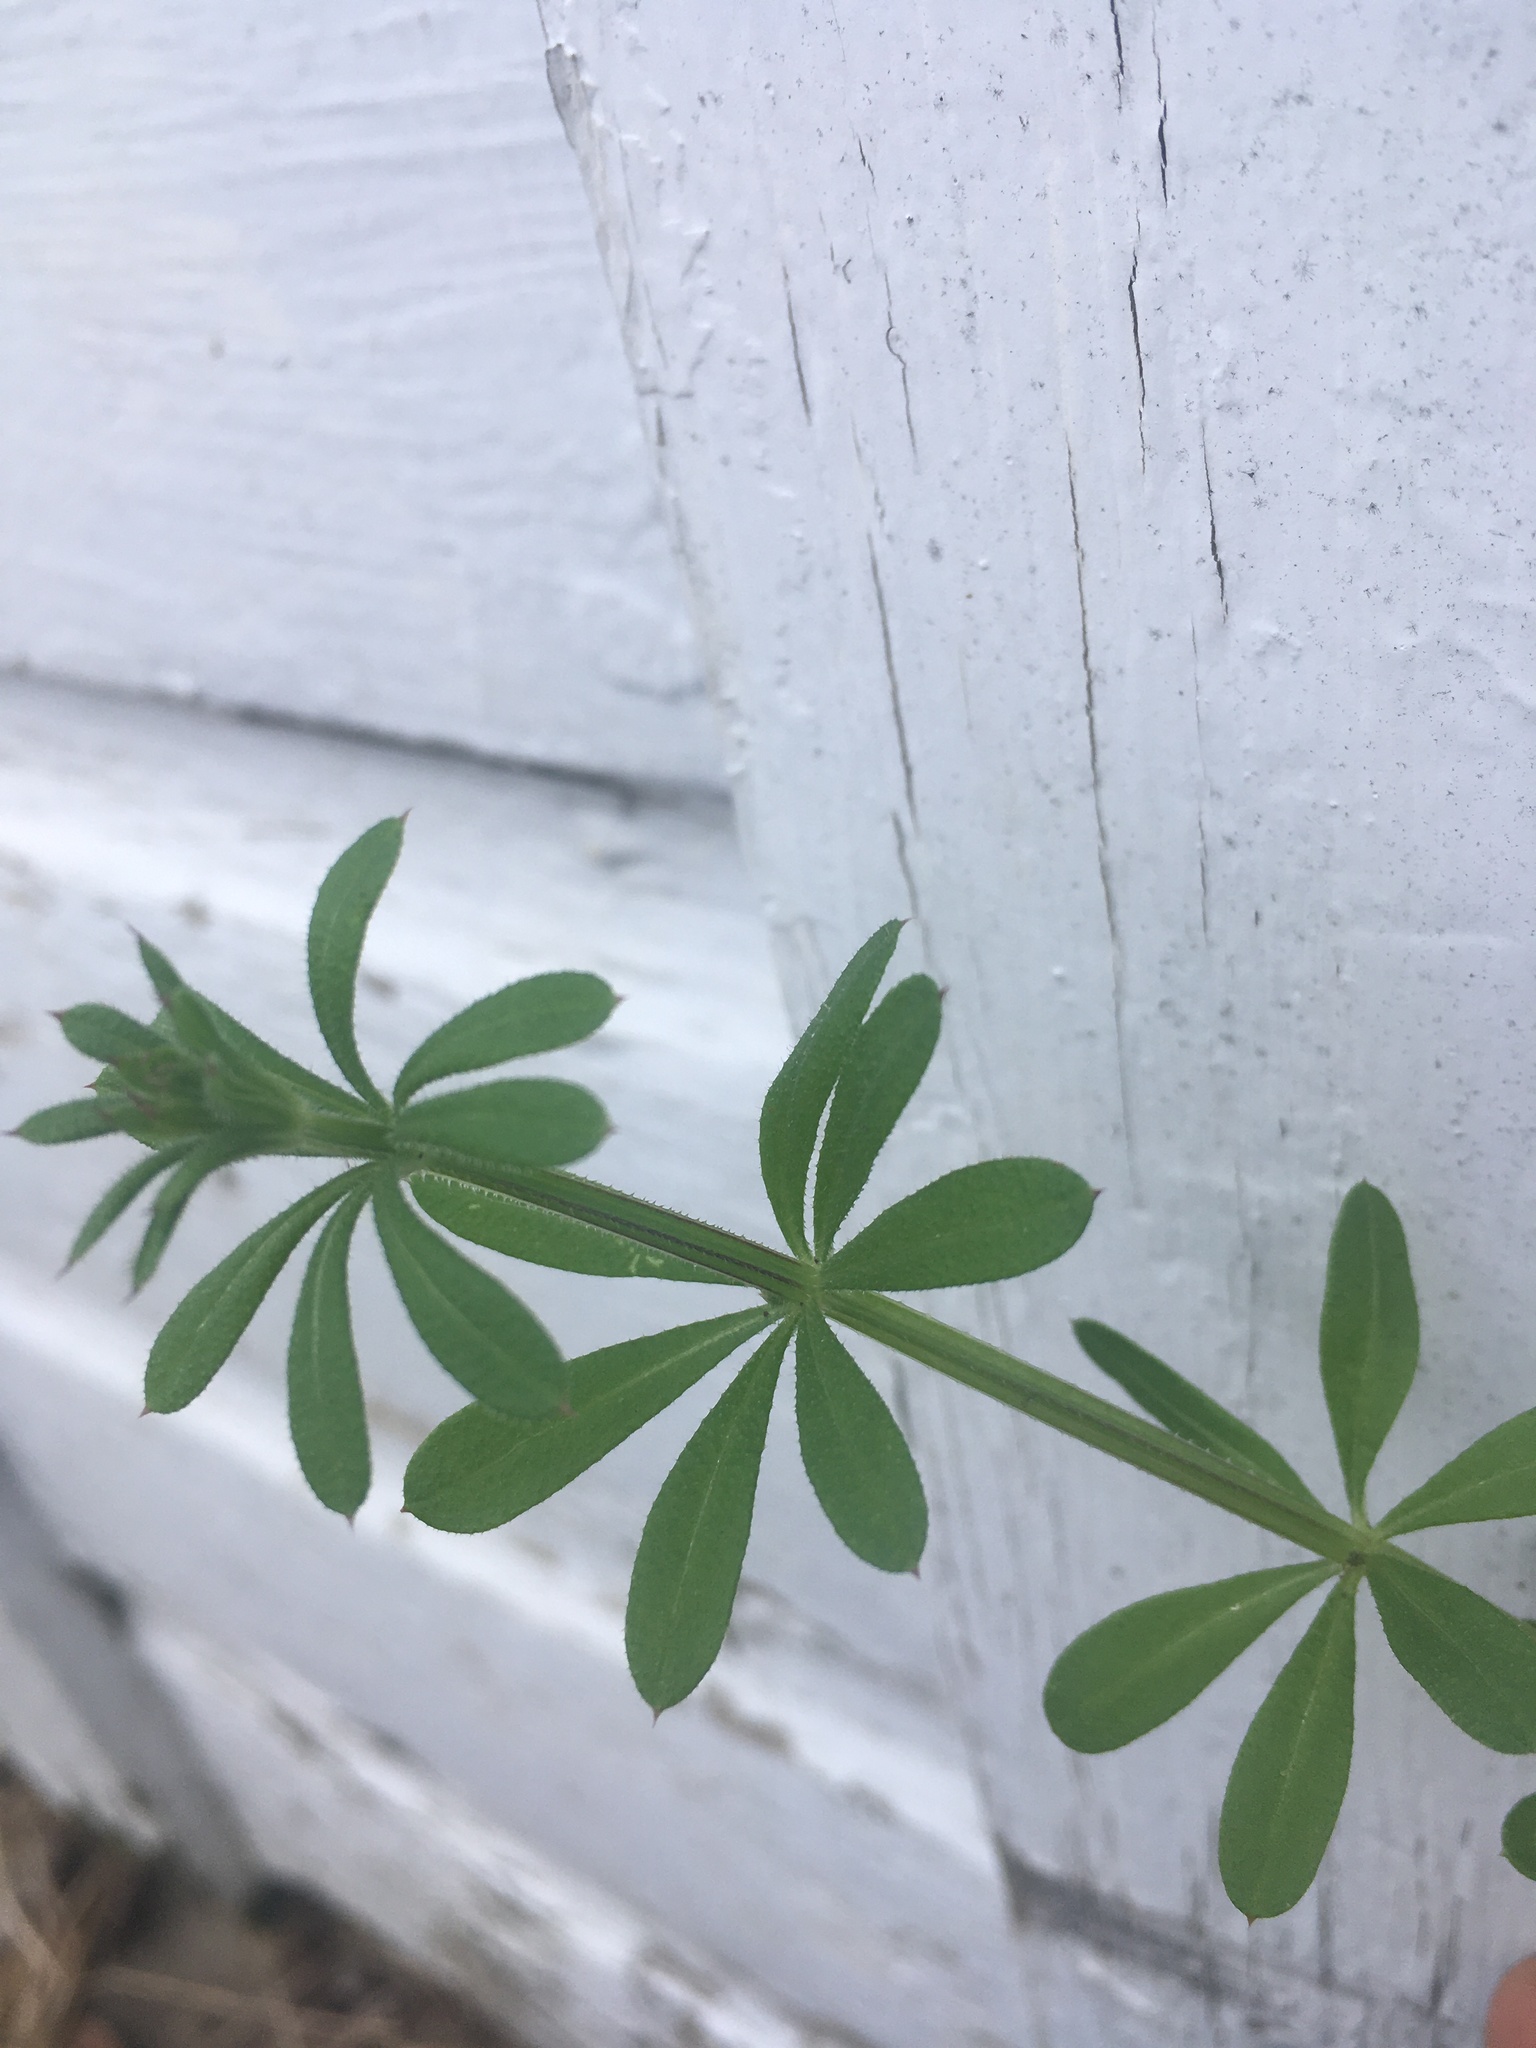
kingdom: Plantae
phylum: Tracheophyta
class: Magnoliopsida
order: Gentianales
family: Rubiaceae
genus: Galium
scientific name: Galium aparine
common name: Cleavers
